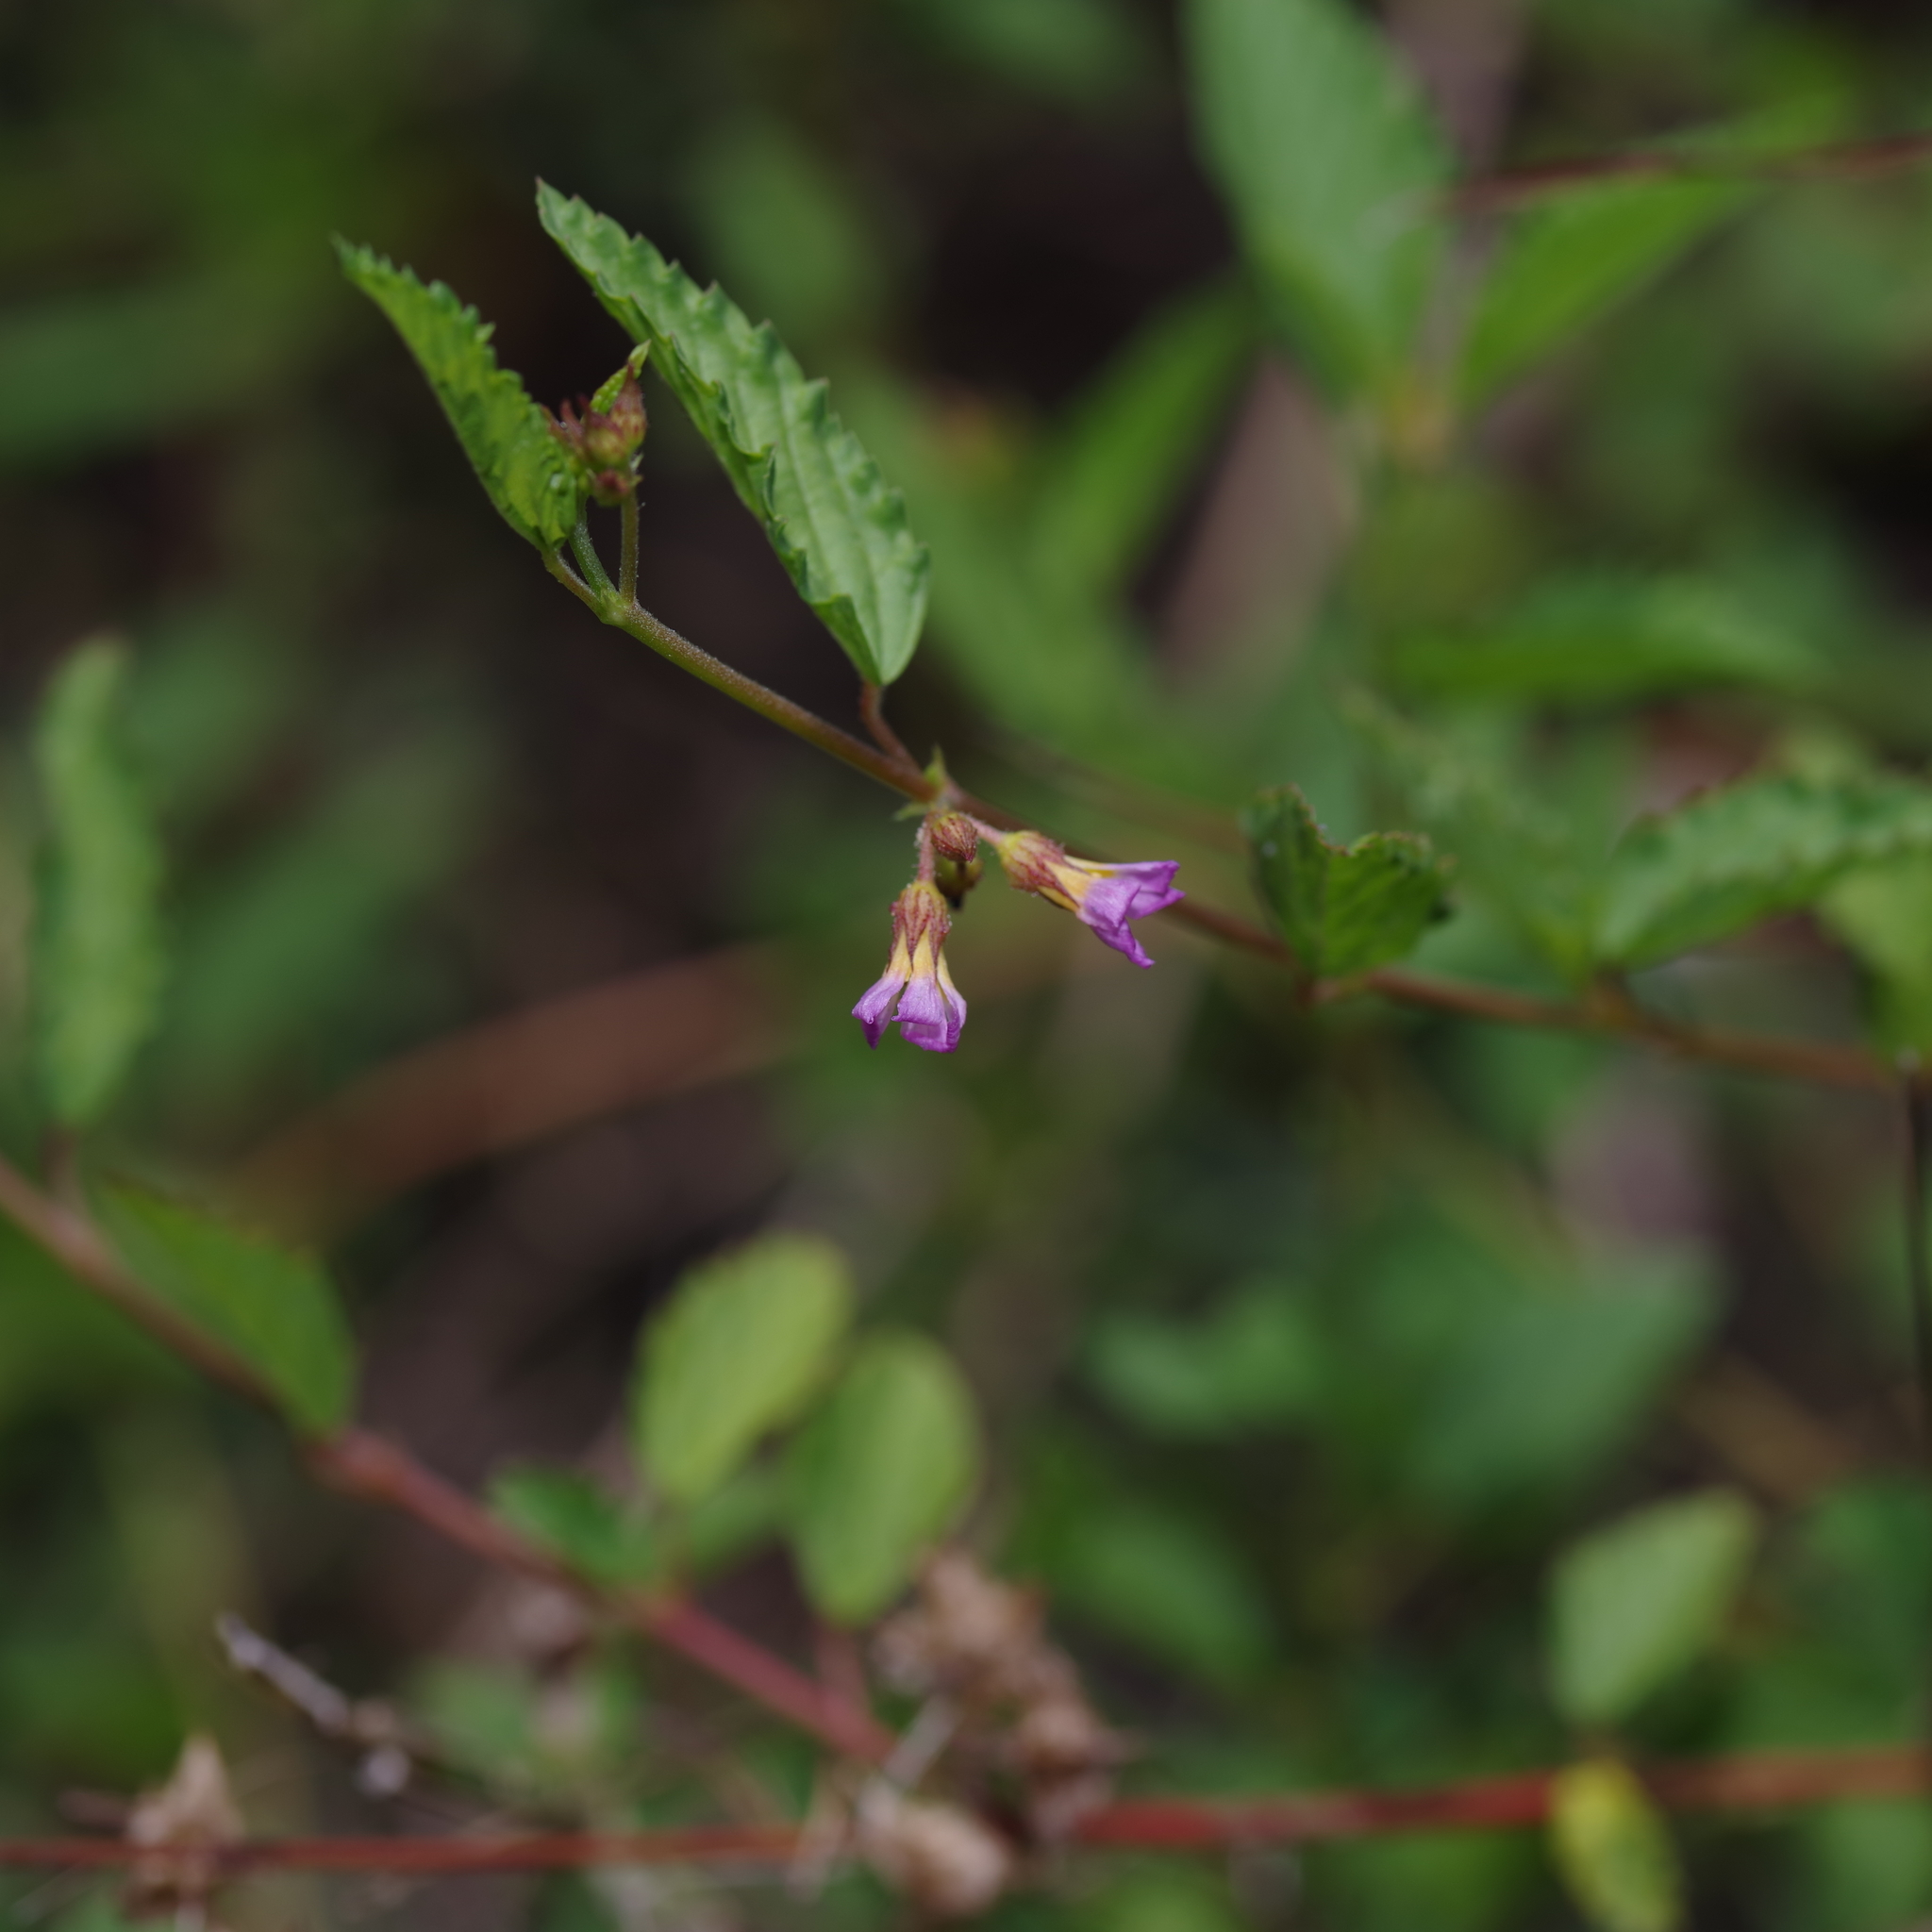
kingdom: Plantae
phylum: Tracheophyta
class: Magnoliopsida
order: Malvales
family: Malvaceae
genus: Melochia
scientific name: Melochia pyramidata
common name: Pyramidflower
